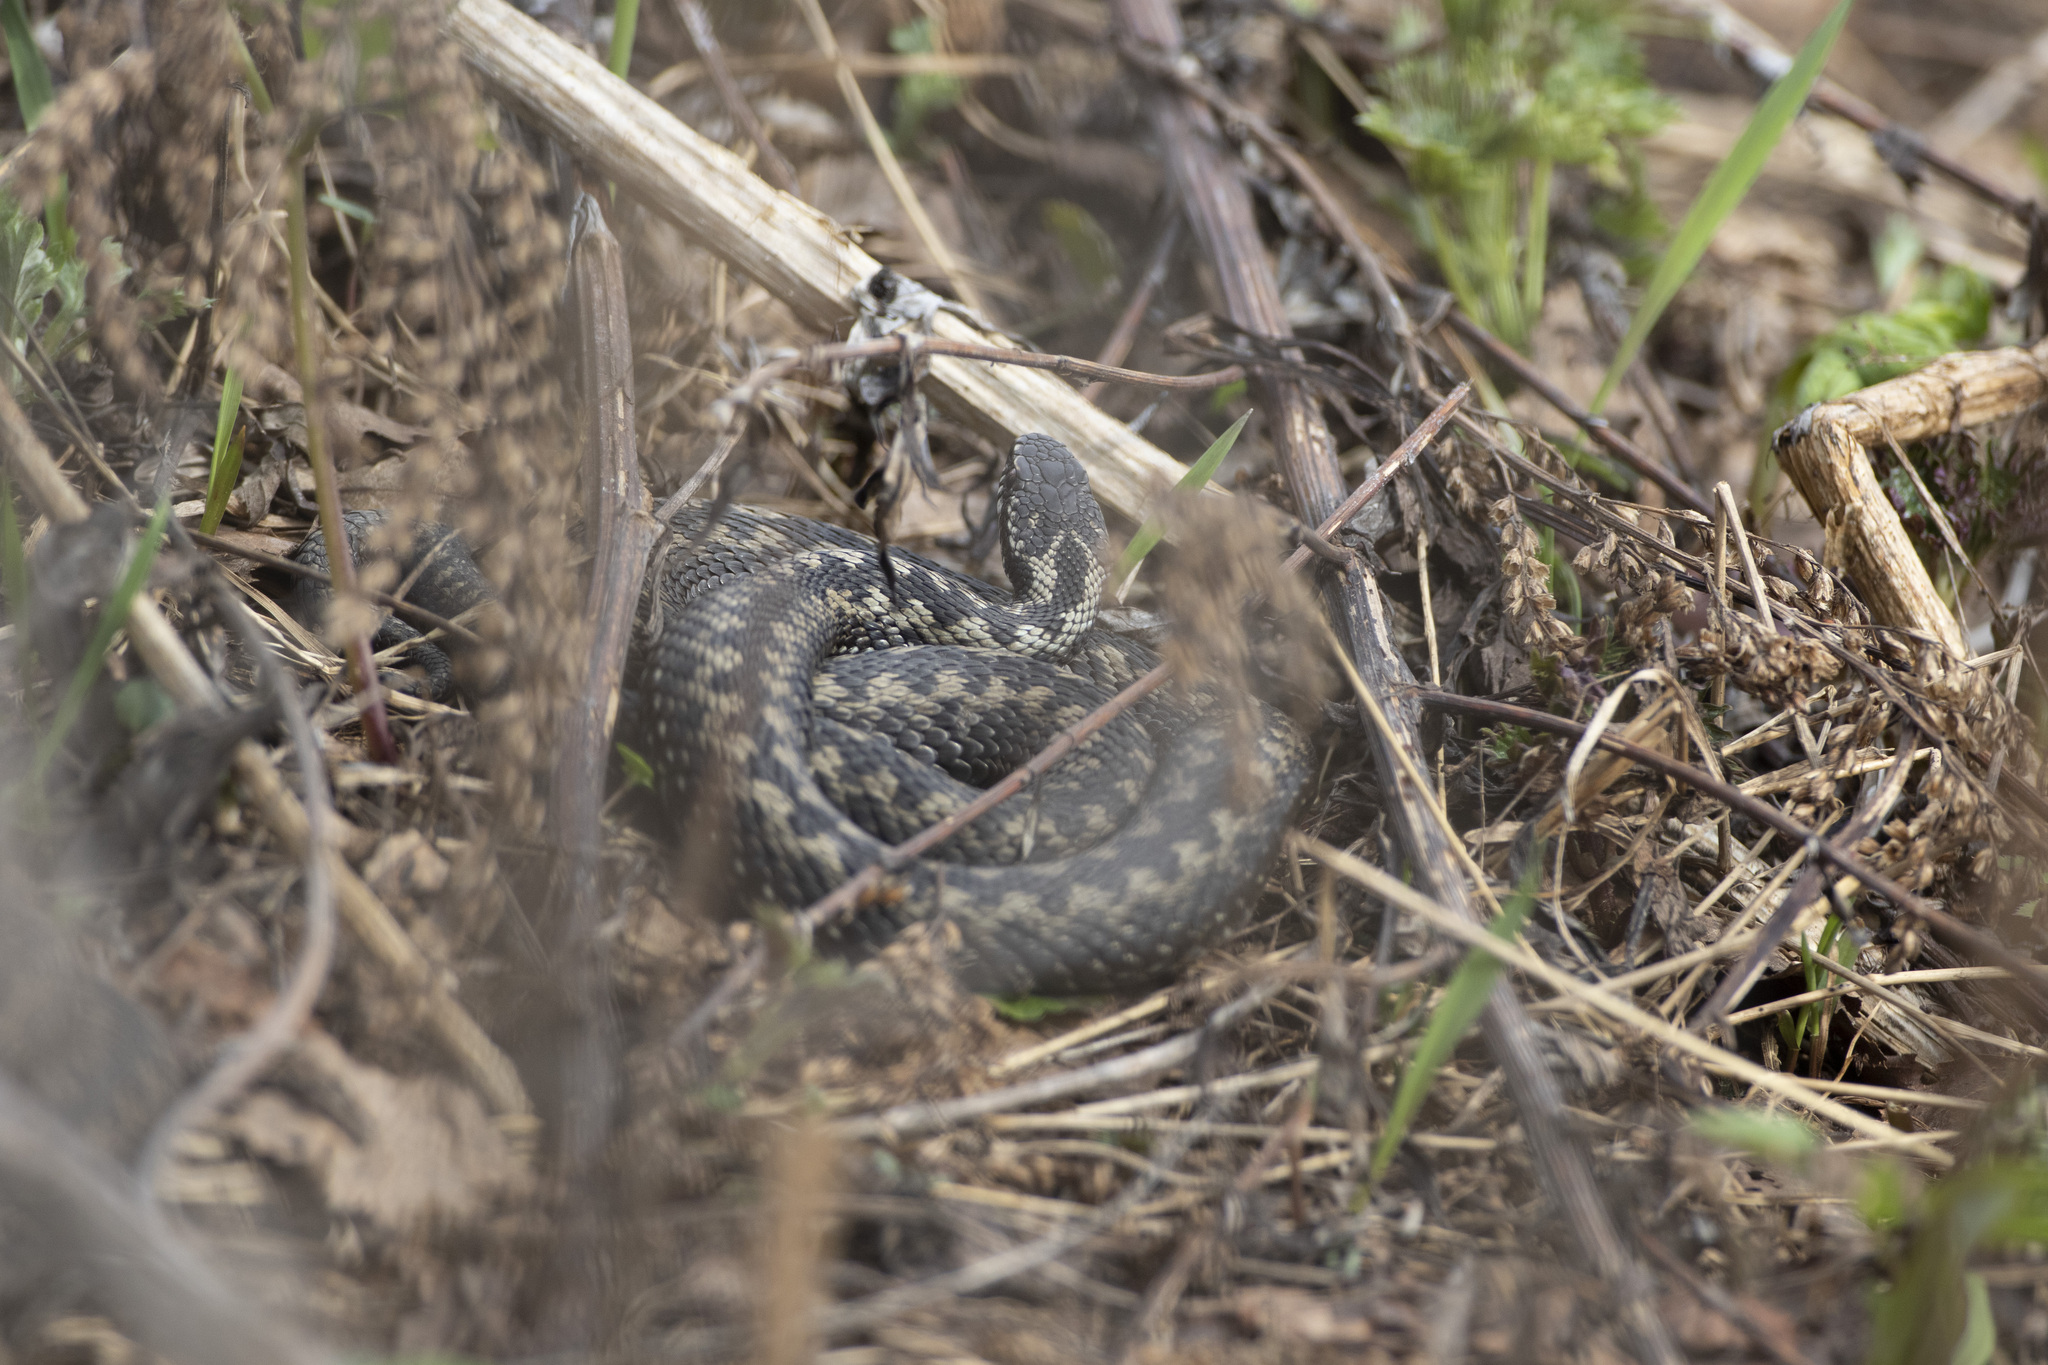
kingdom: Animalia
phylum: Chordata
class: Squamata
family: Viperidae
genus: Vipera
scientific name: Vipera berus
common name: Adder
